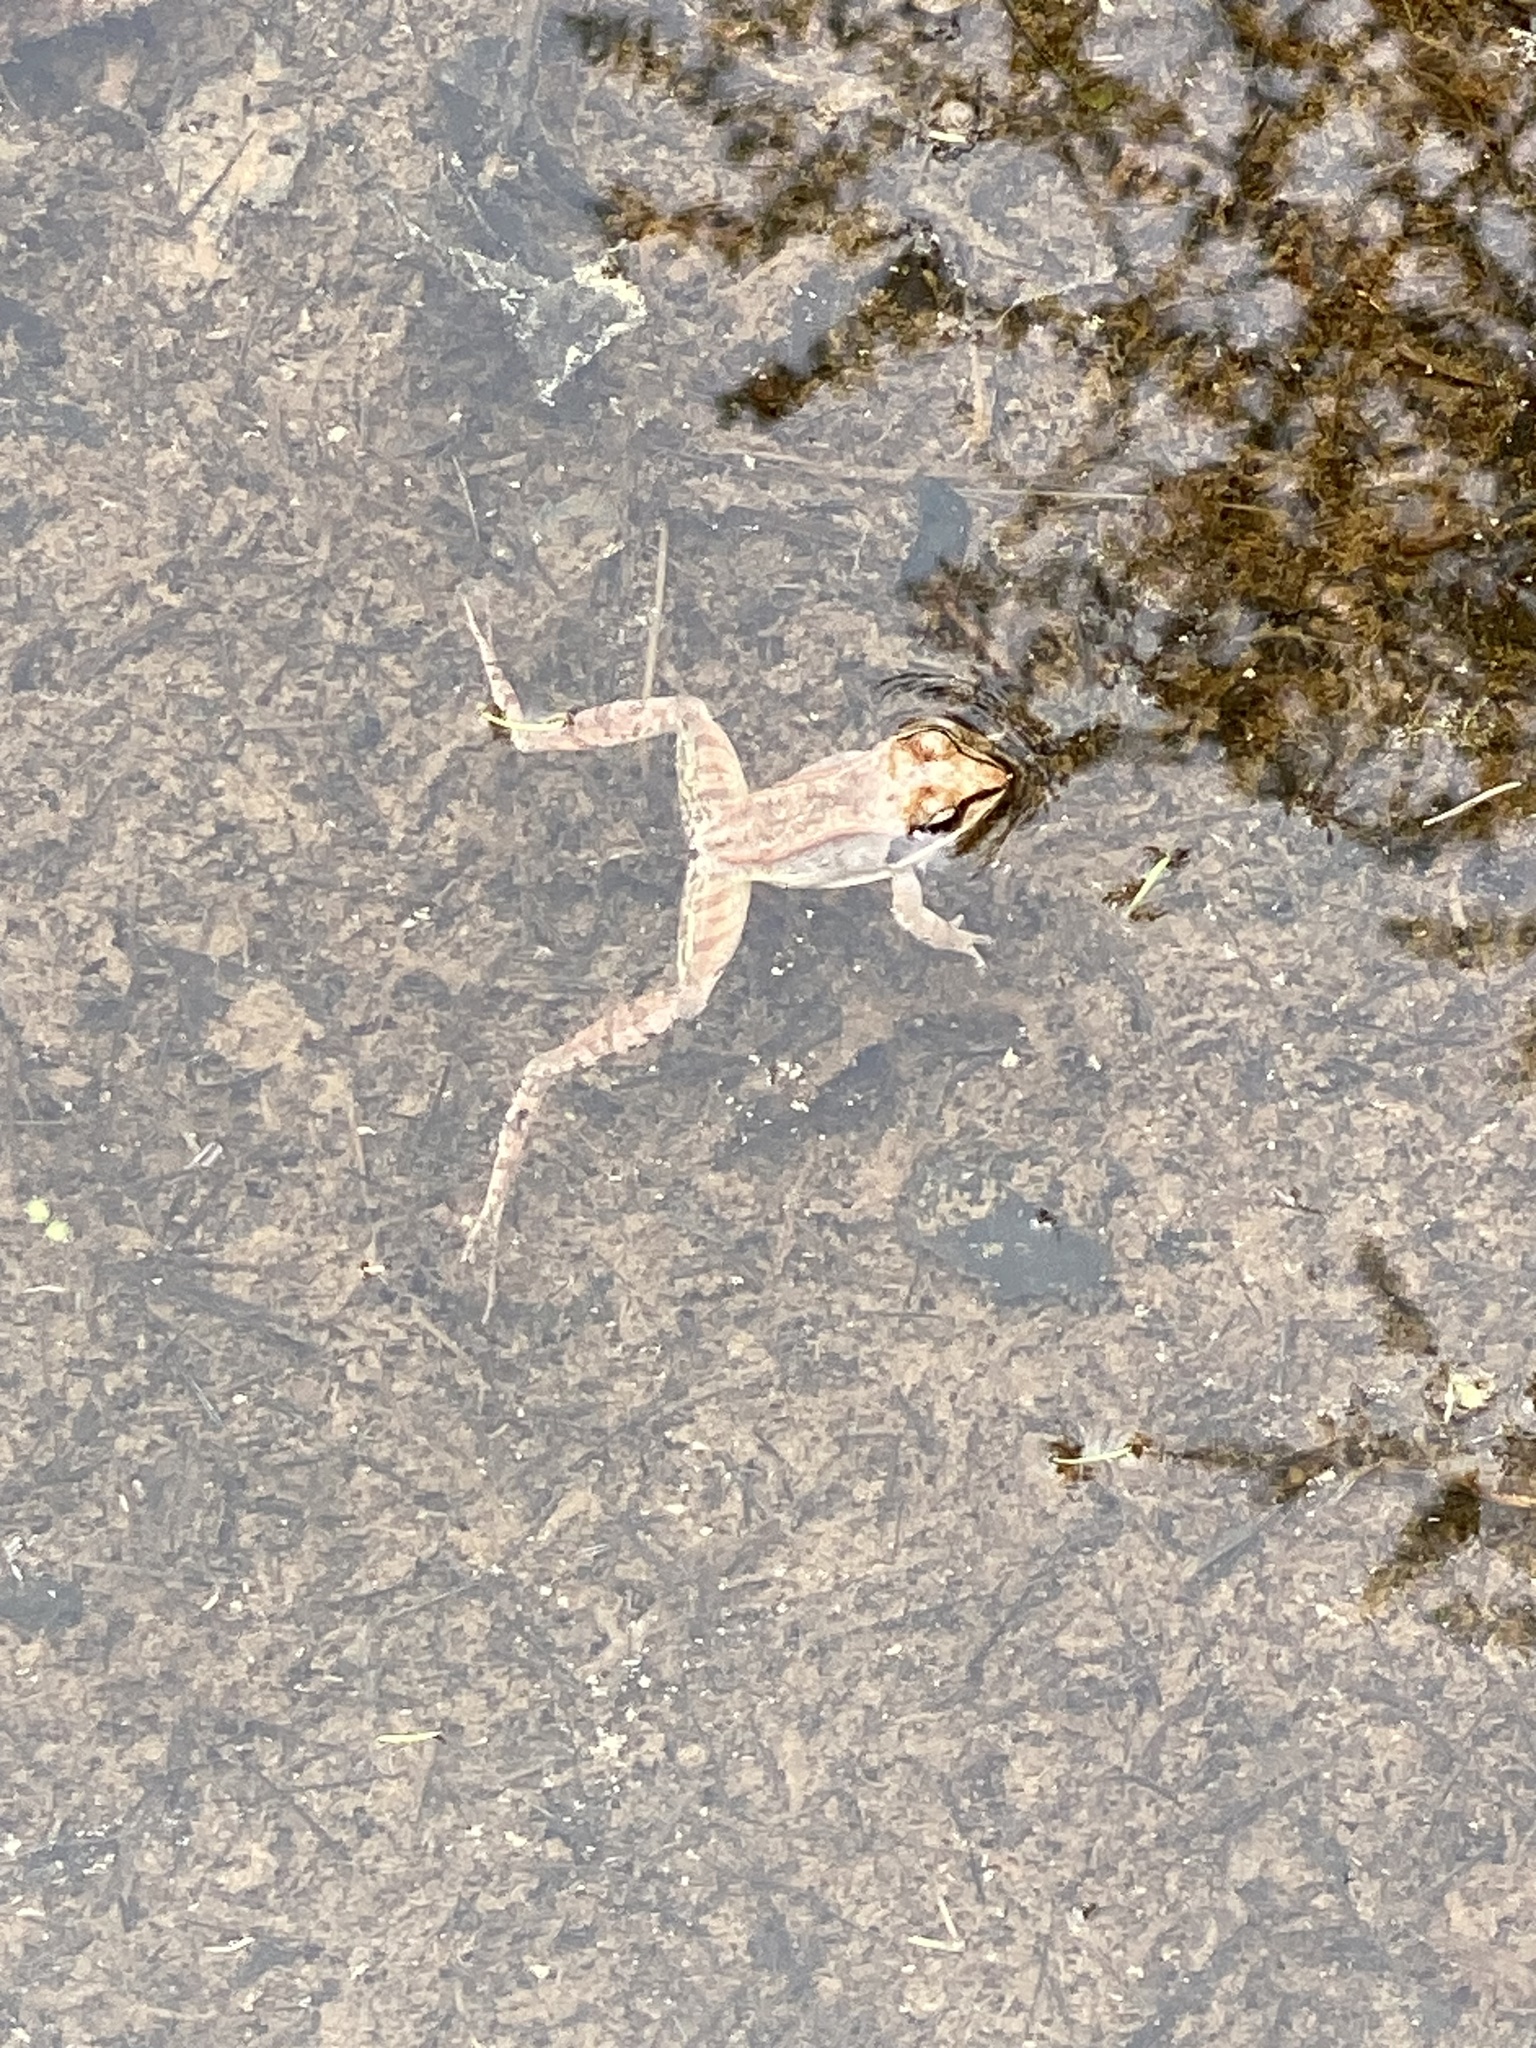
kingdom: Animalia
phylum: Chordata
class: Amphibia
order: Anura
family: Ranidae
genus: Lithobates
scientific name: Lithobates sylvaticus
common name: Wood frog
